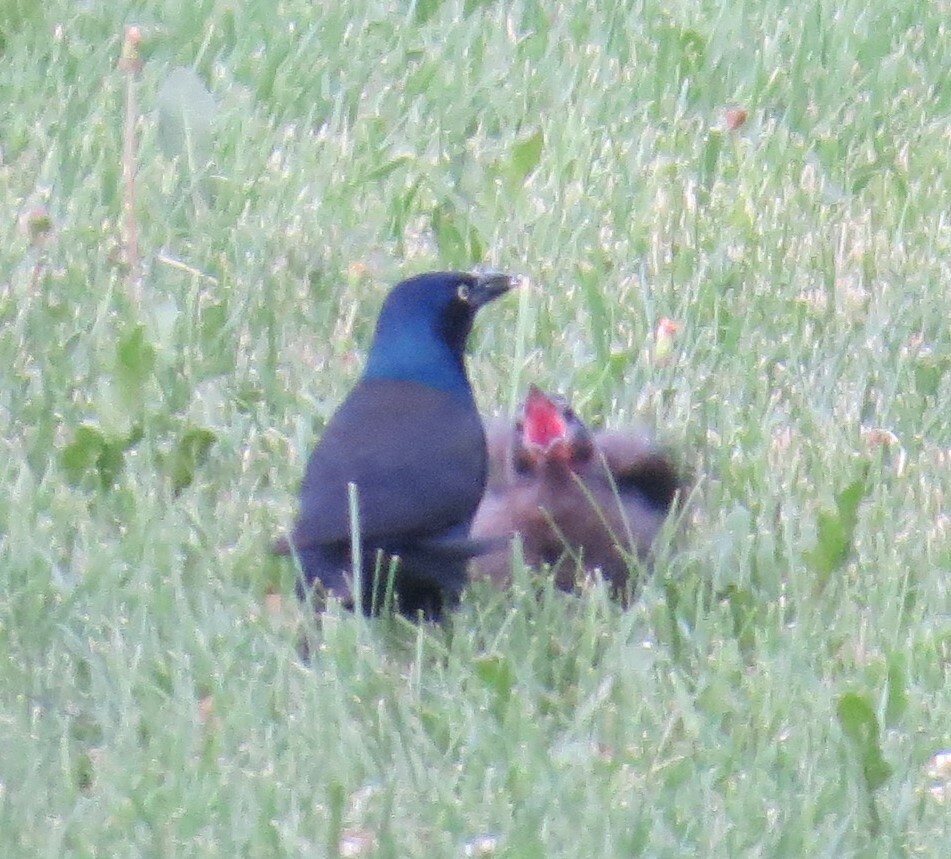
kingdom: Animalia
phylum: Chordata
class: Aves
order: Passeriformes
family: Icteridae
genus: Quiscalus
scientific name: Quiscalus quiscula
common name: Common grackle
